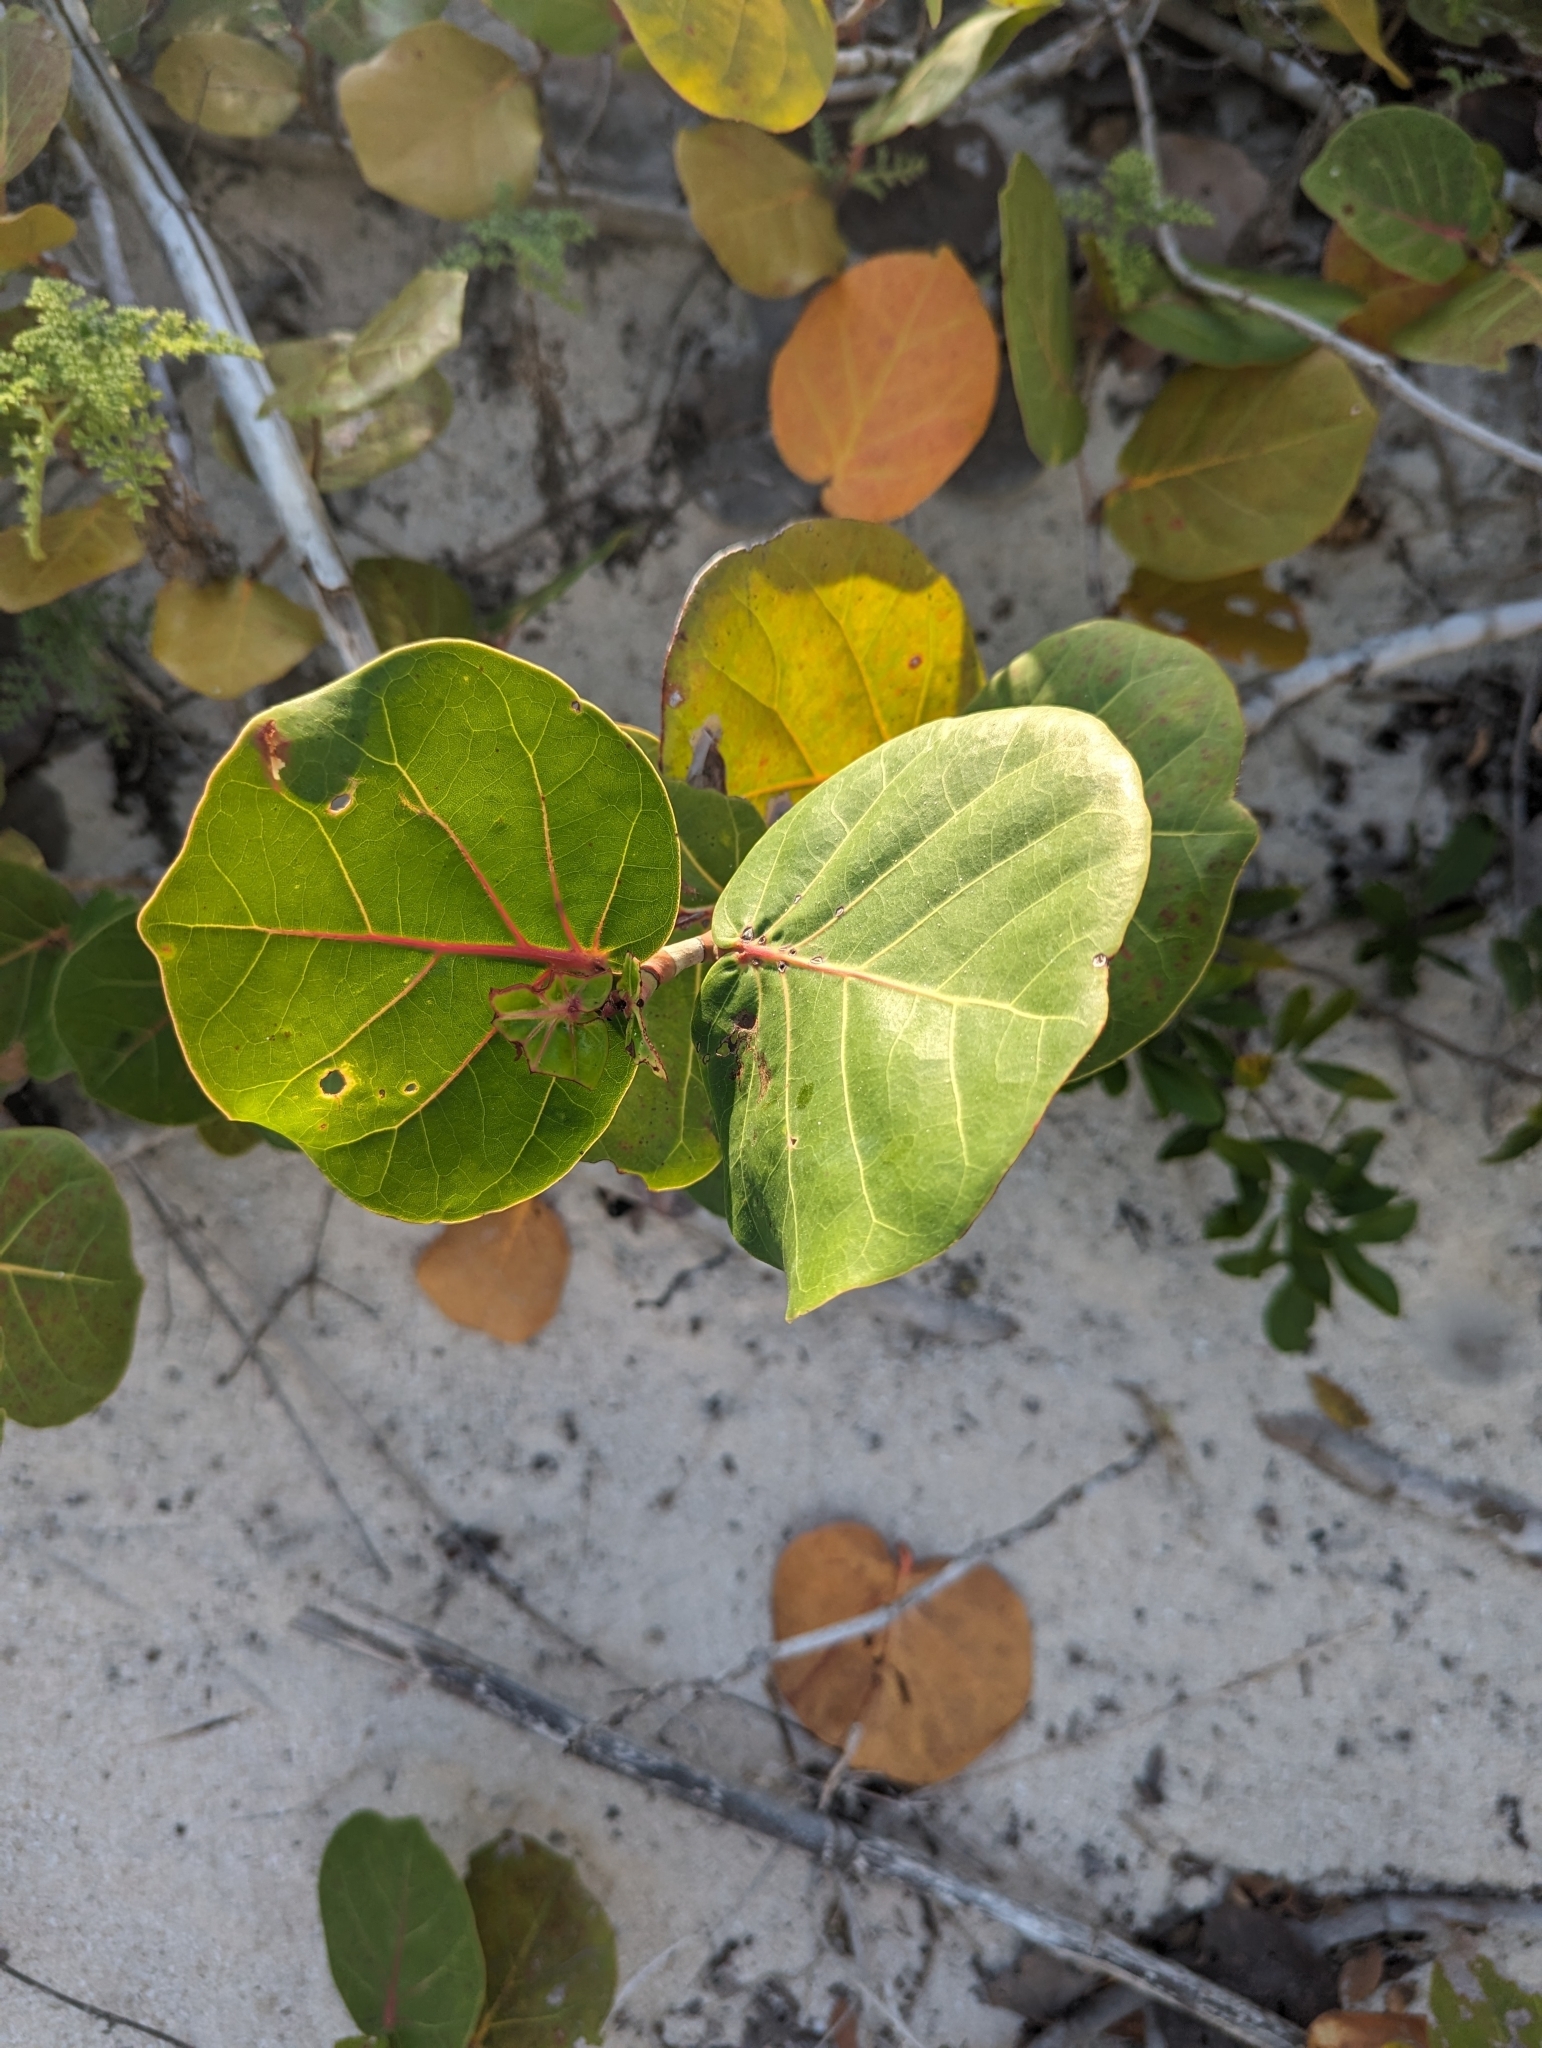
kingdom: Plantae
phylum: Tracheophyta
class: Magnoliopsida
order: Caryophyllales
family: Polygonaceae
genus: Coccoloba
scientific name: Coccoloba uvifera
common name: Seagrape
